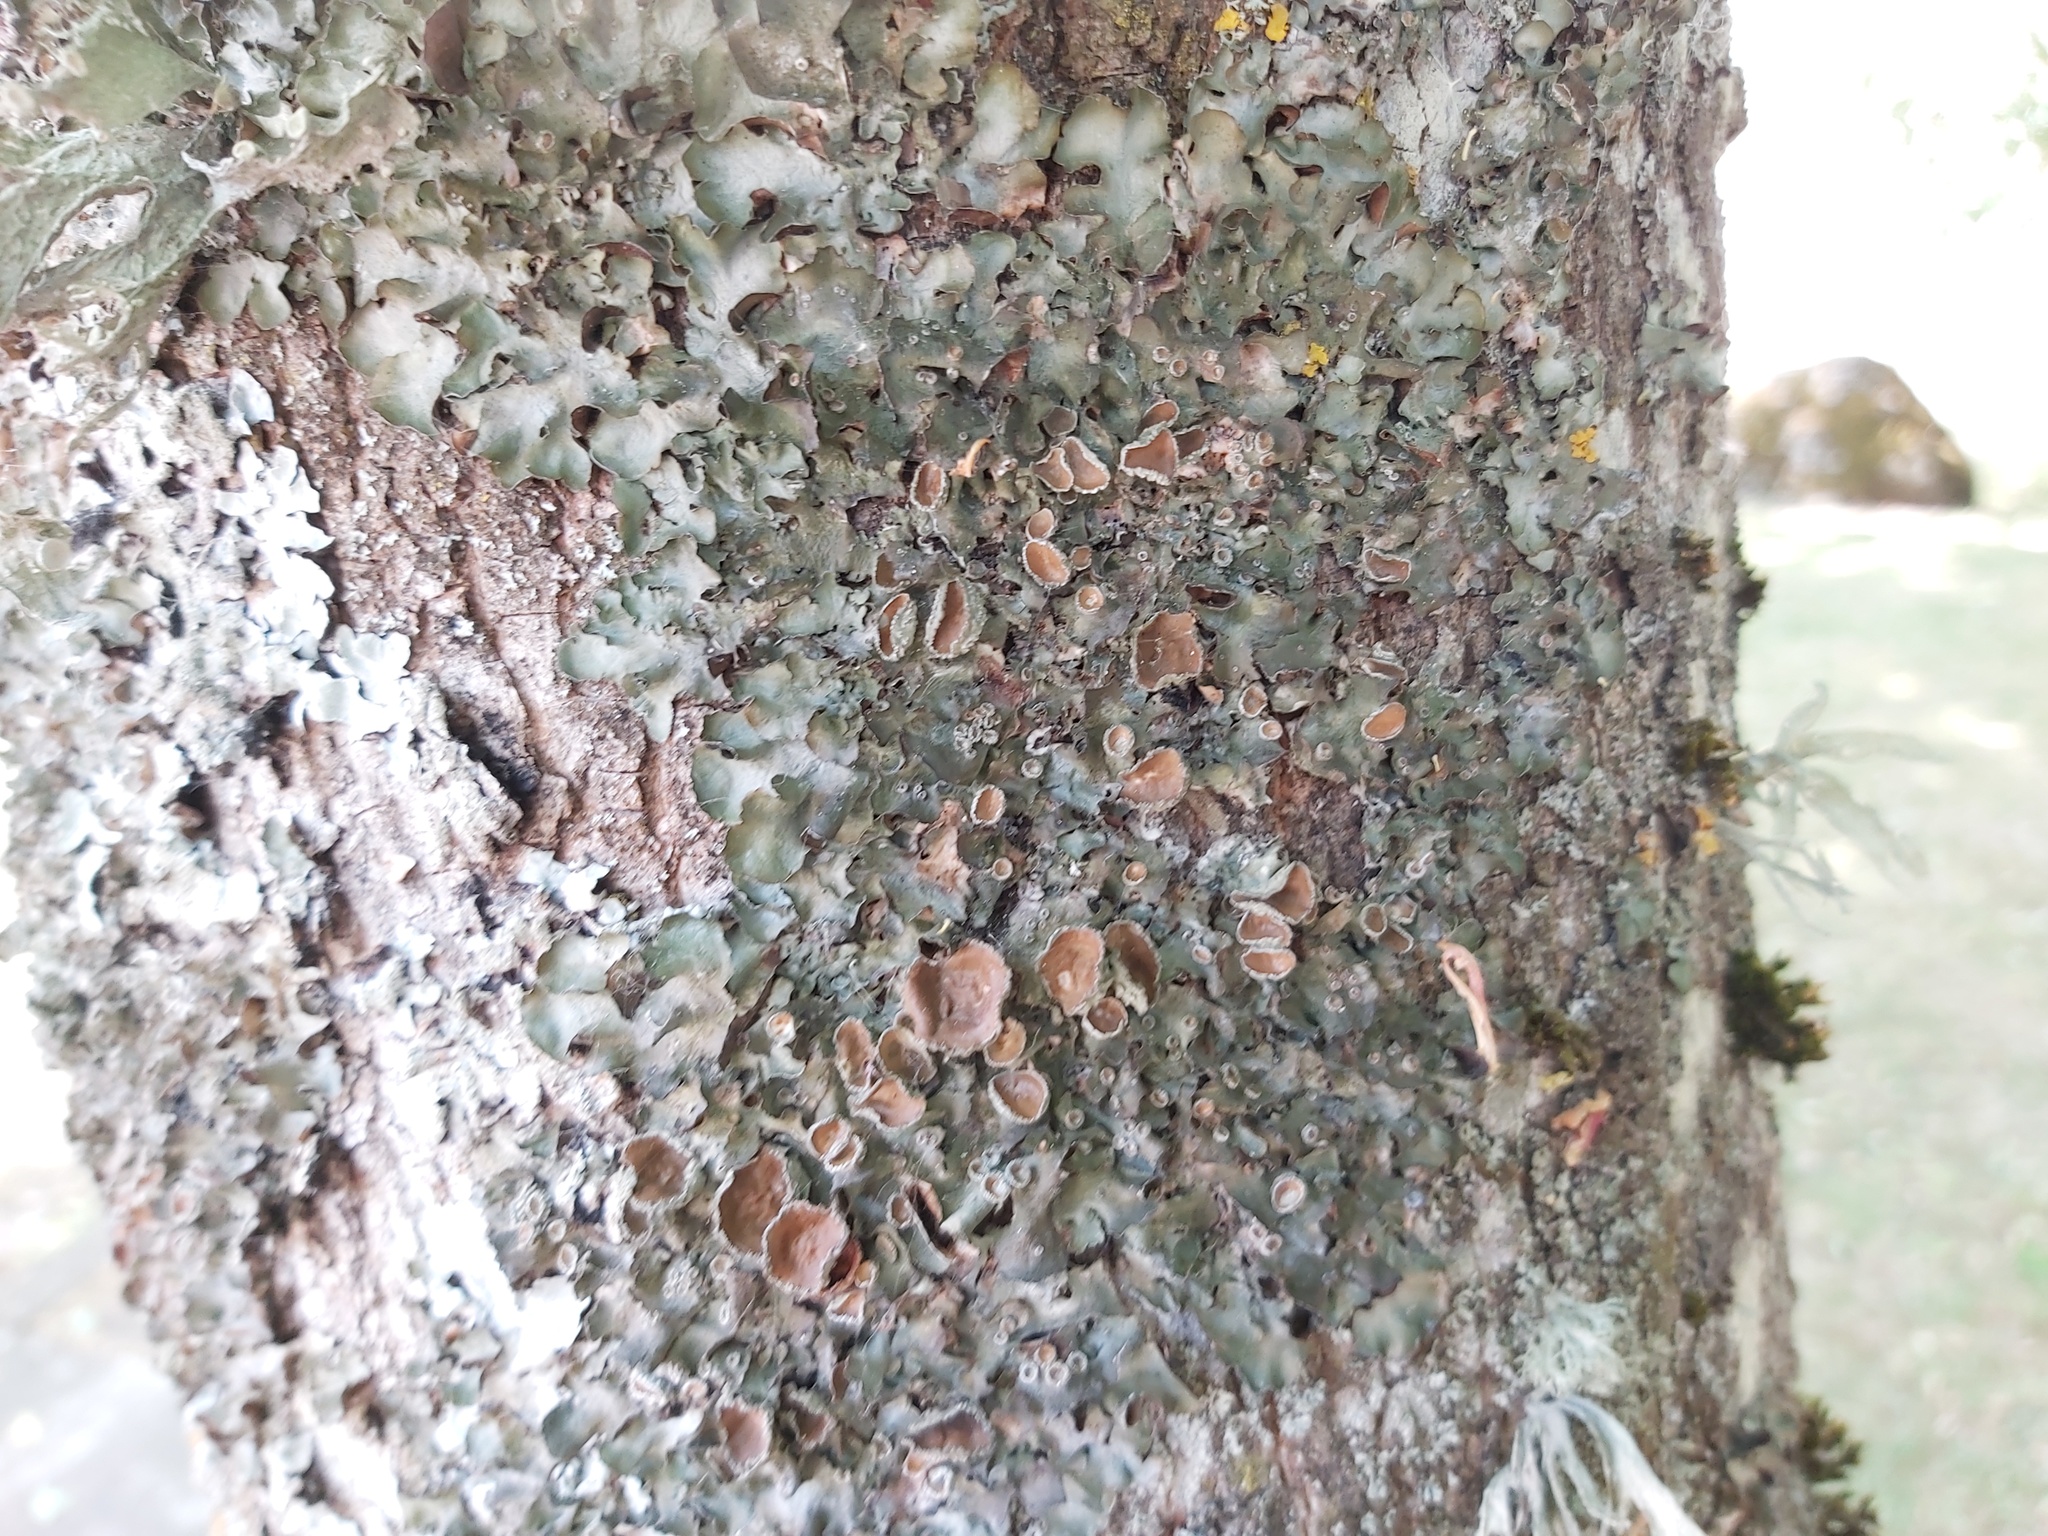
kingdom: Fungi
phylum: Ascomycota
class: Lecanoromycetes
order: Lecanorales
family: Parmeliaceae
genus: Pleurosticta
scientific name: Pleurosticta acetabulum
